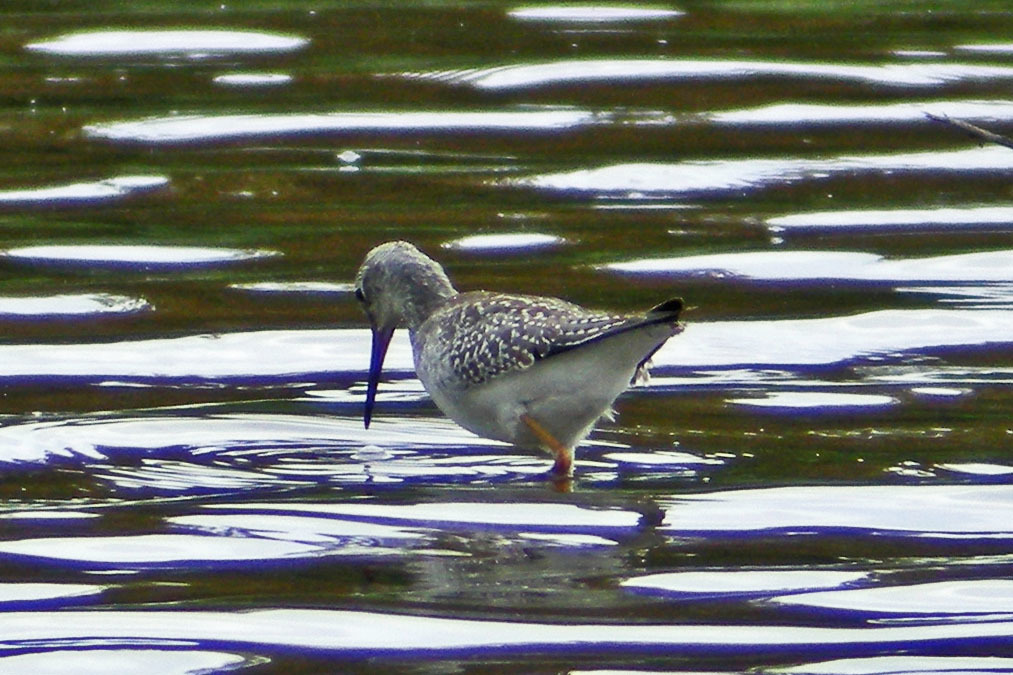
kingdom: Animalia
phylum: Chordata
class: Aves
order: Charadriiformes
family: Scolopacidae
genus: Tringa
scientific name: Tringa flavipes
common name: Lesser yellowlegs
